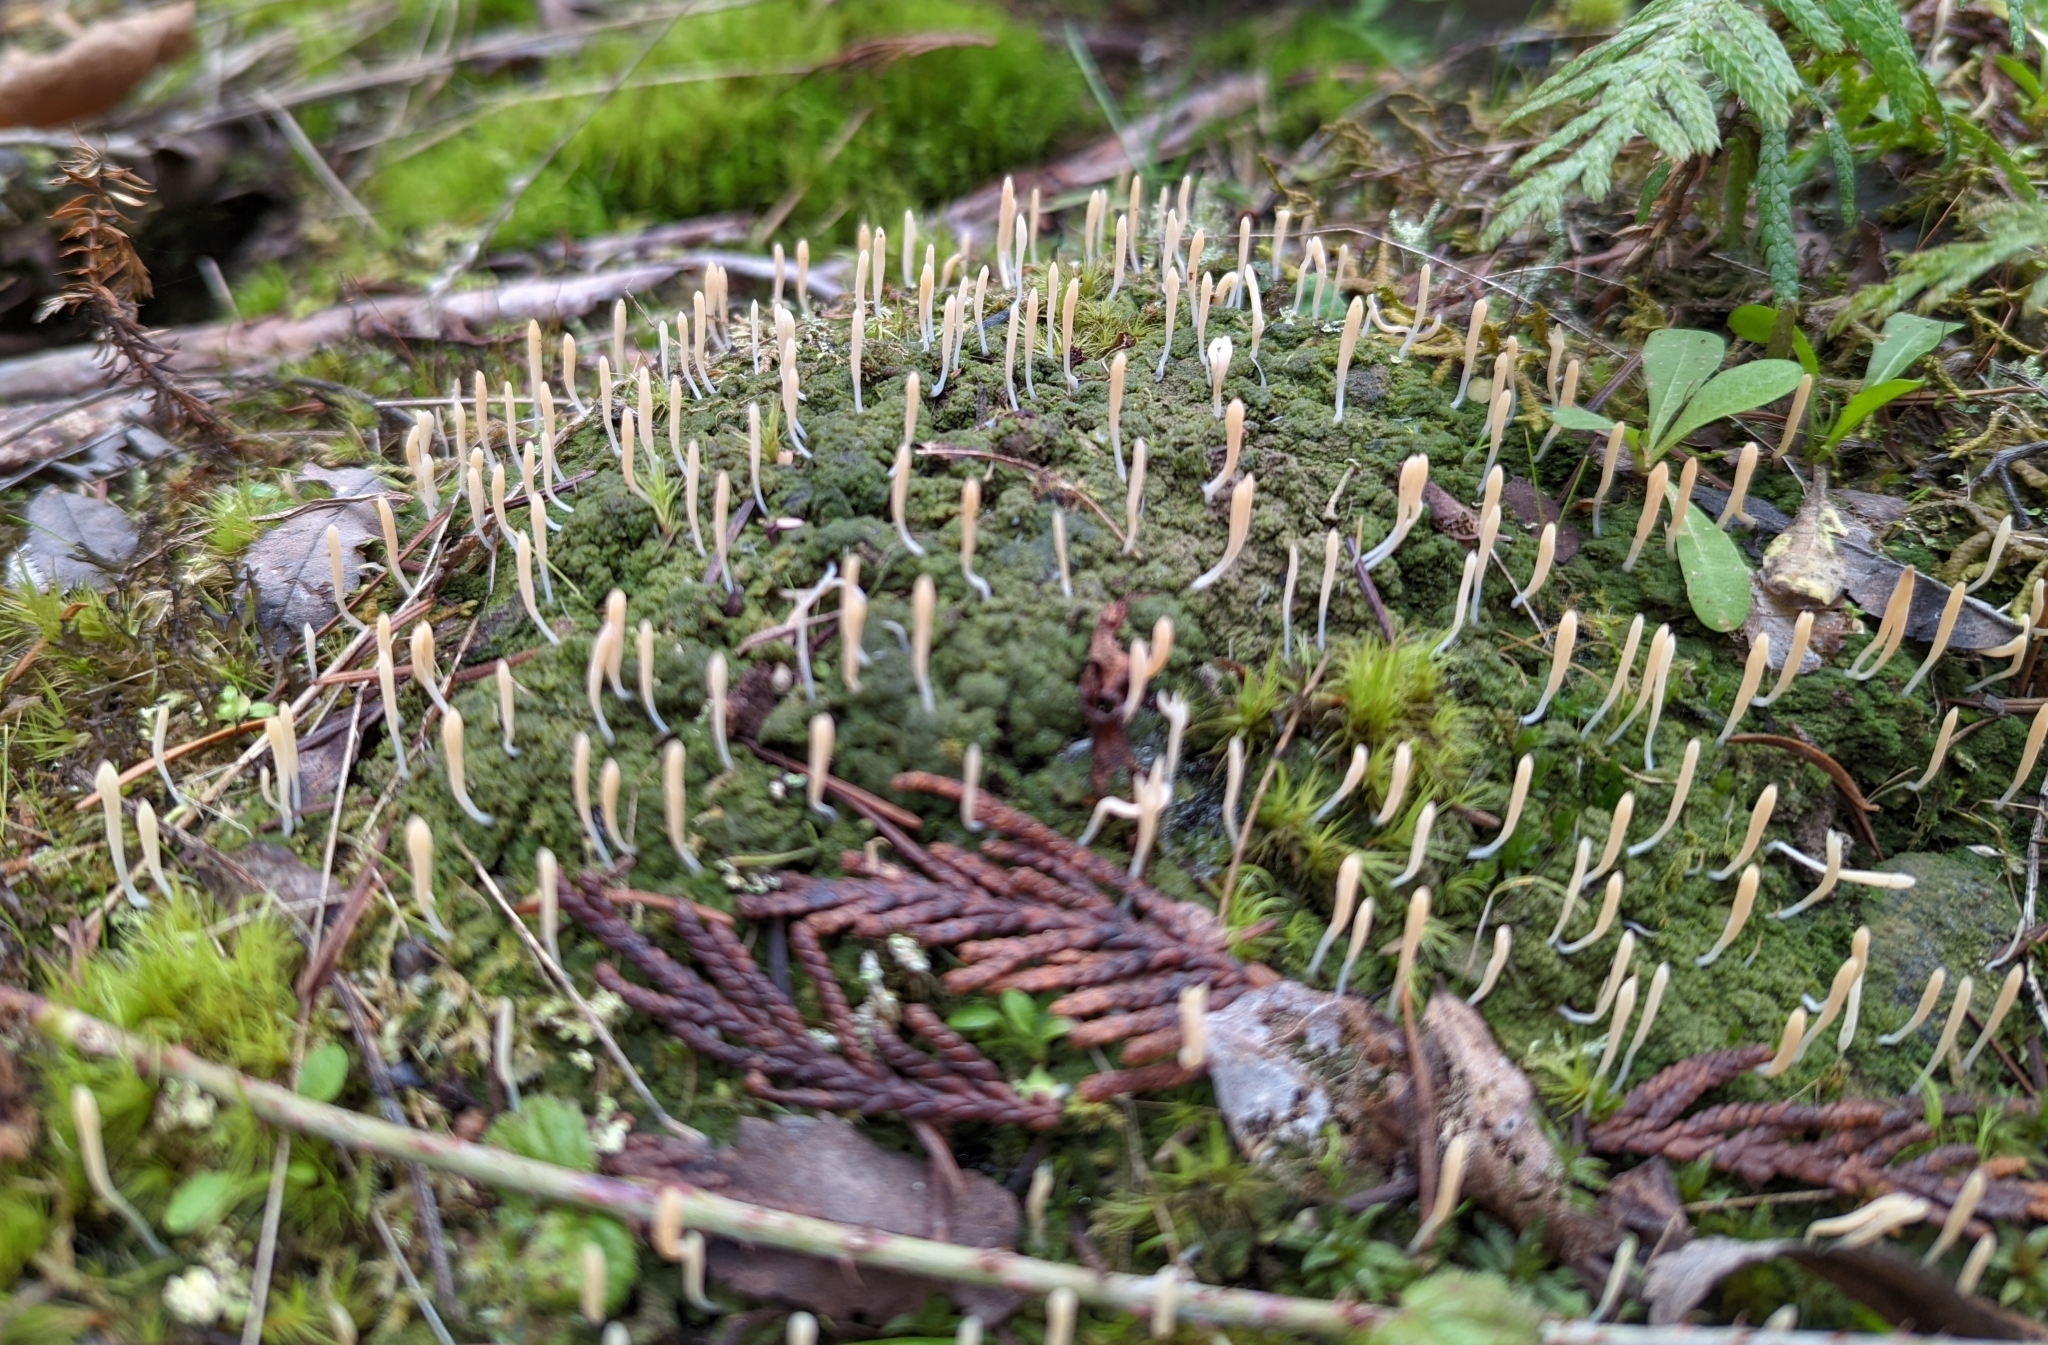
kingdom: Fungi
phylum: Basidiomycota
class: Agaricomycetes
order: Cantharellales
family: Hydnaceae
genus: Multiclavula
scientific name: Multiclavula corynoides
